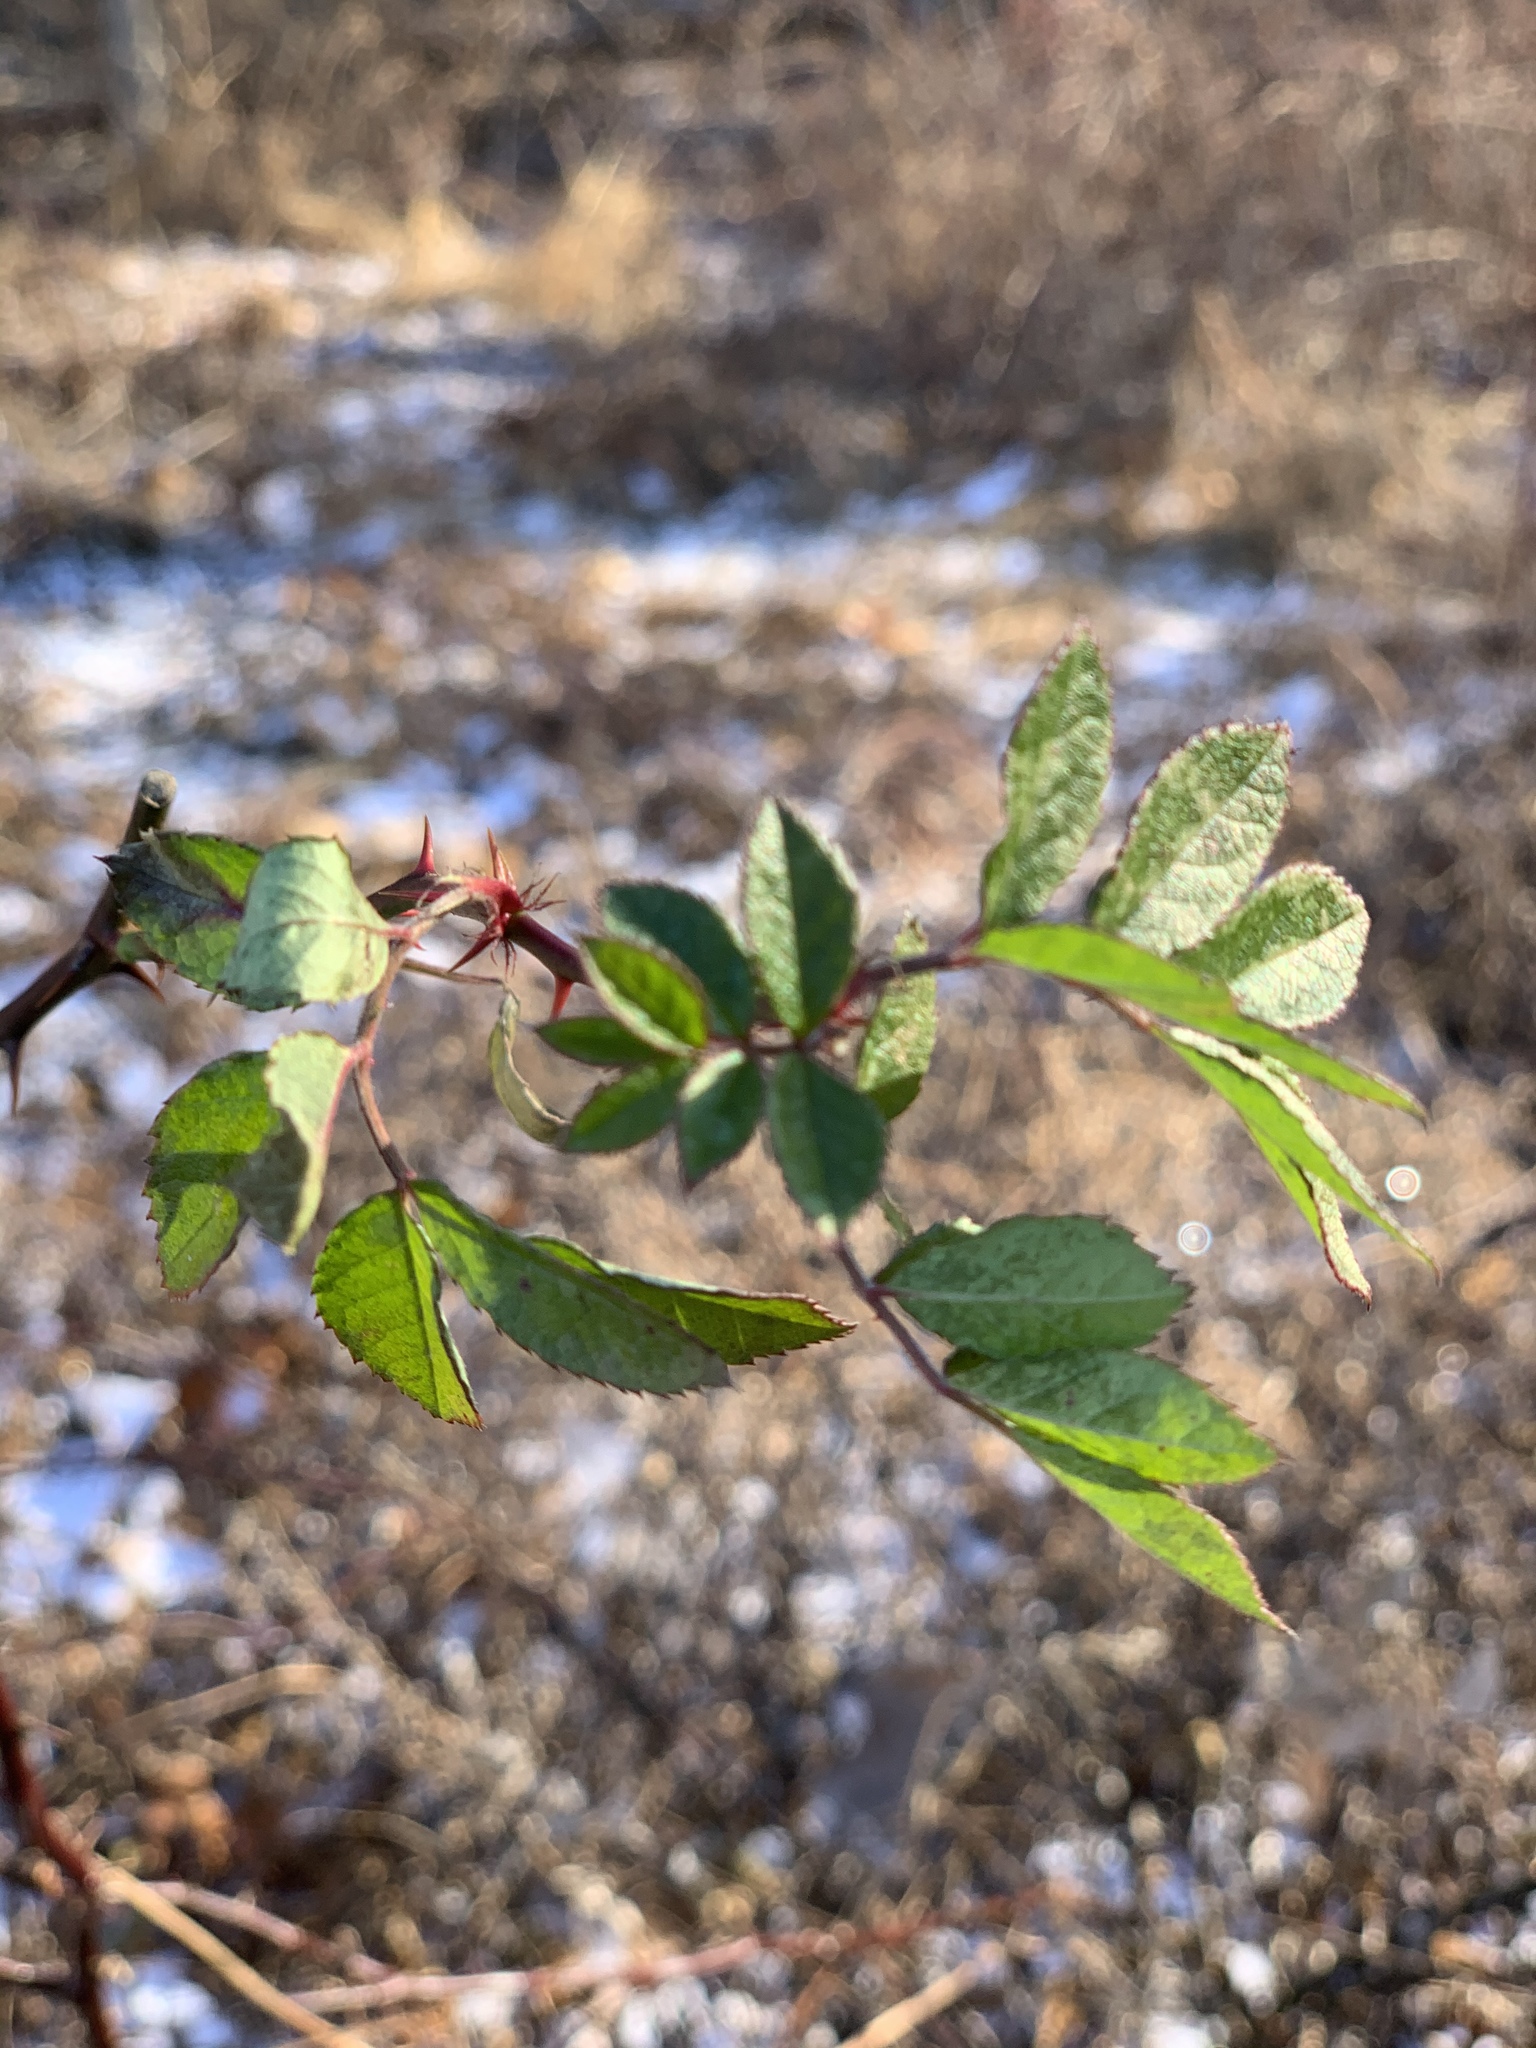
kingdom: Plantae
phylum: Tracheophyta
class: Magnoliopsida
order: Rosales
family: Rosaceae
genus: Rosa
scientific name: Rosa multiflora
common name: Multiflora rose
